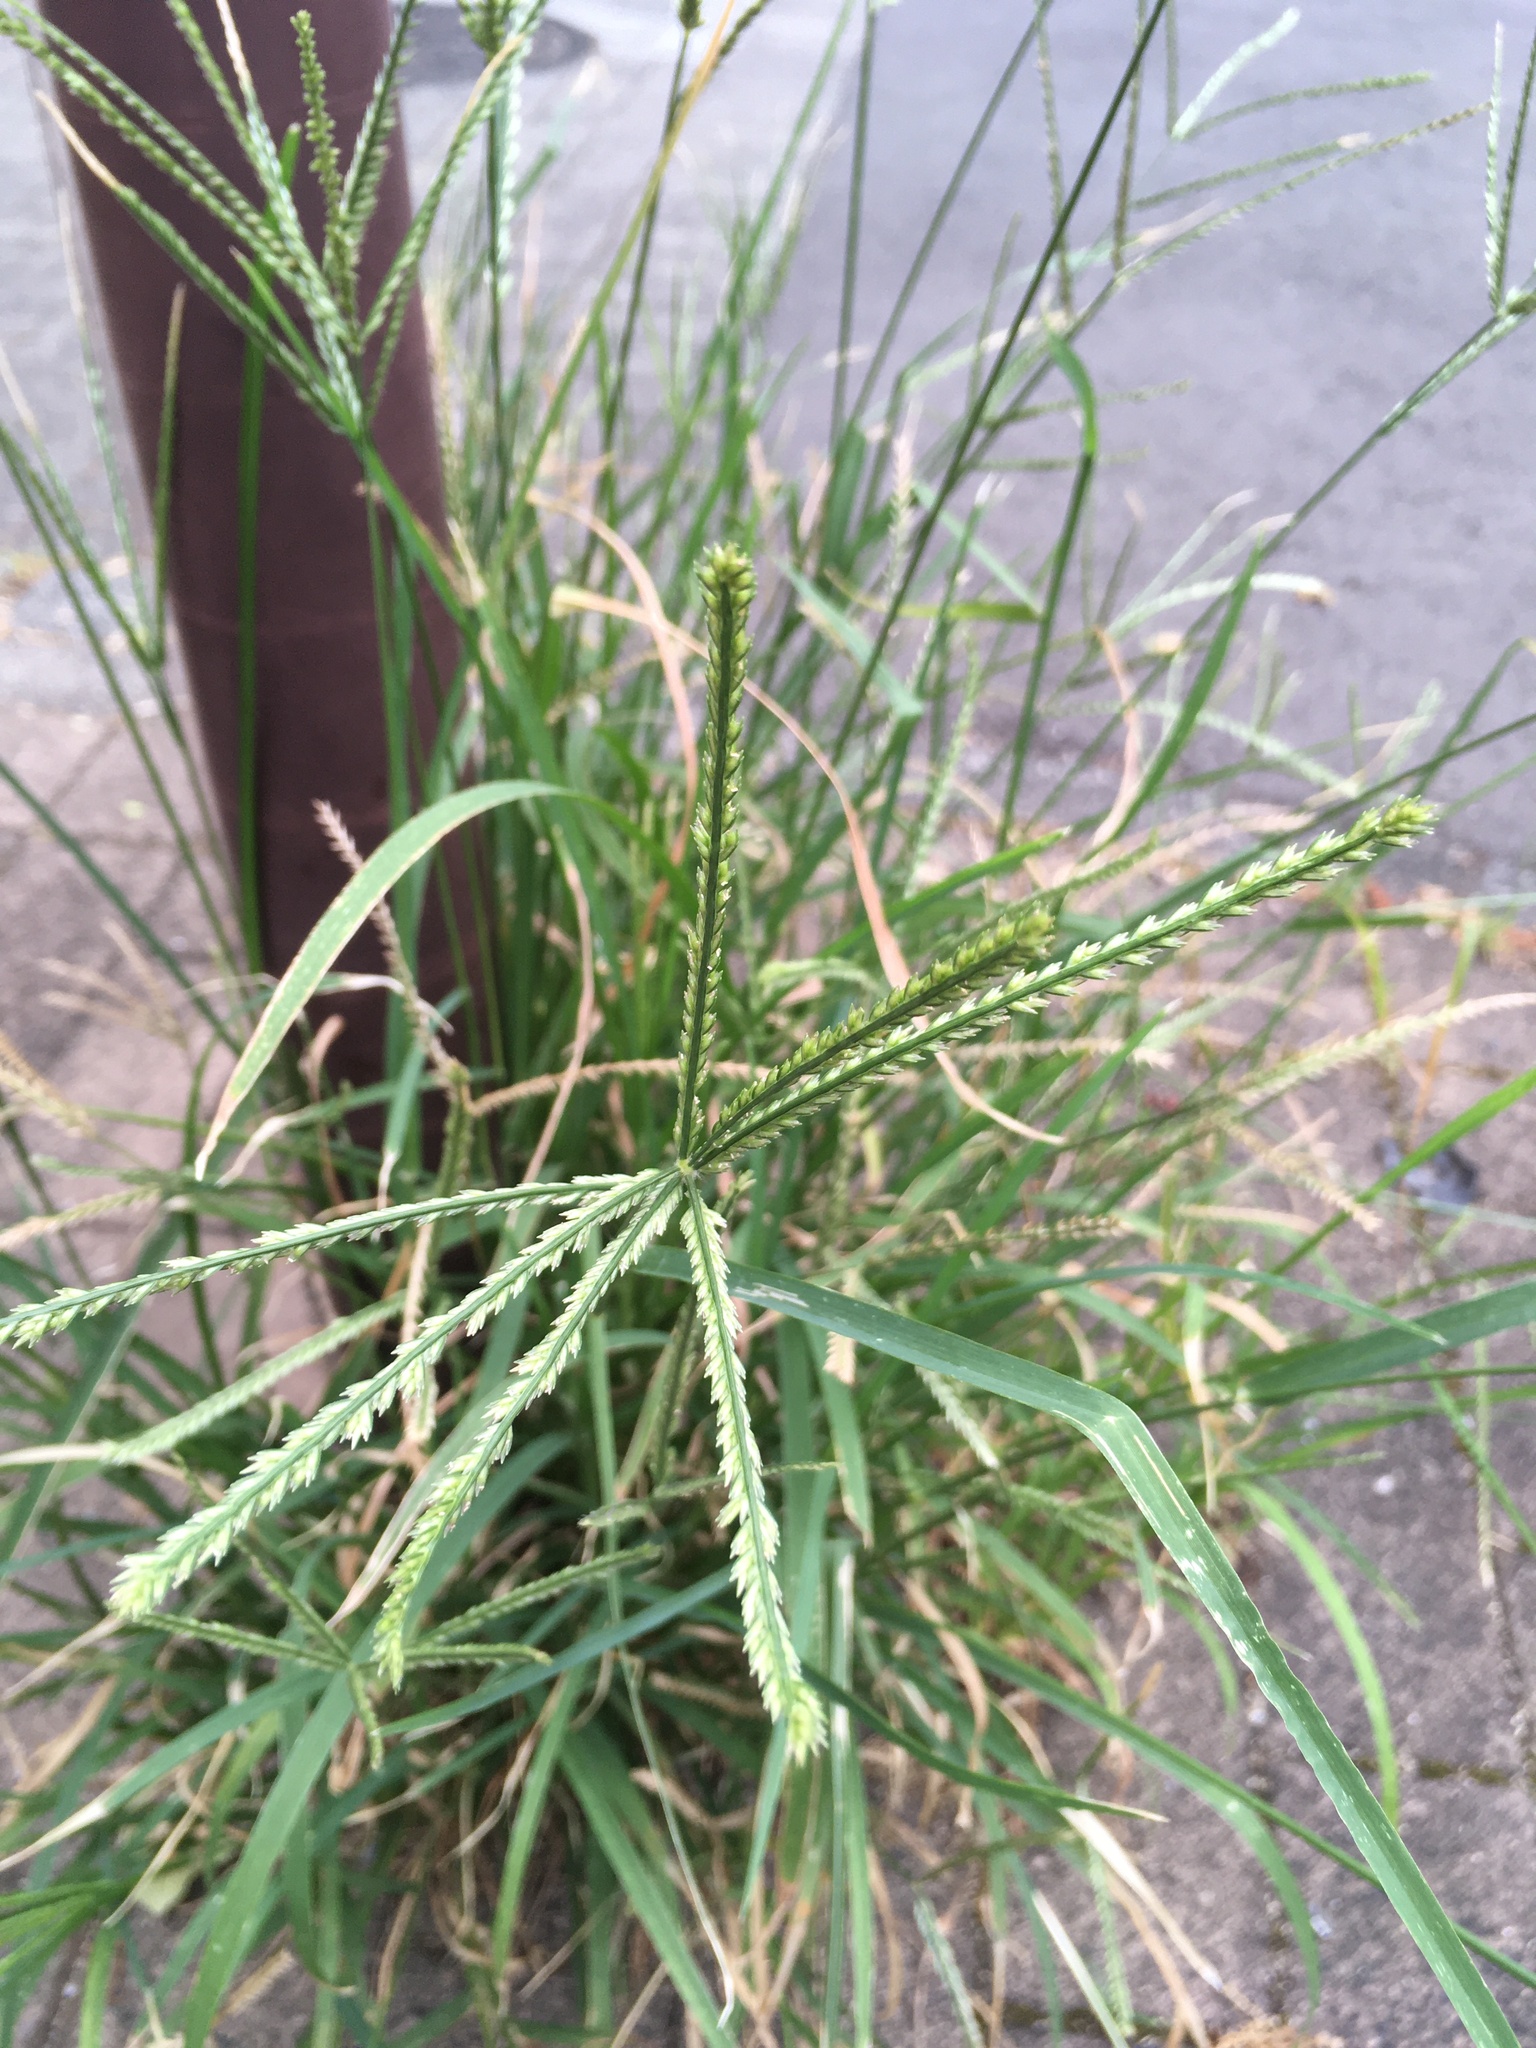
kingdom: Plantae
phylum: Tracheophyta
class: Liliopsida
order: Poales
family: Poaceae
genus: Eleusine
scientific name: Eleusine indica
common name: Yard-grass
